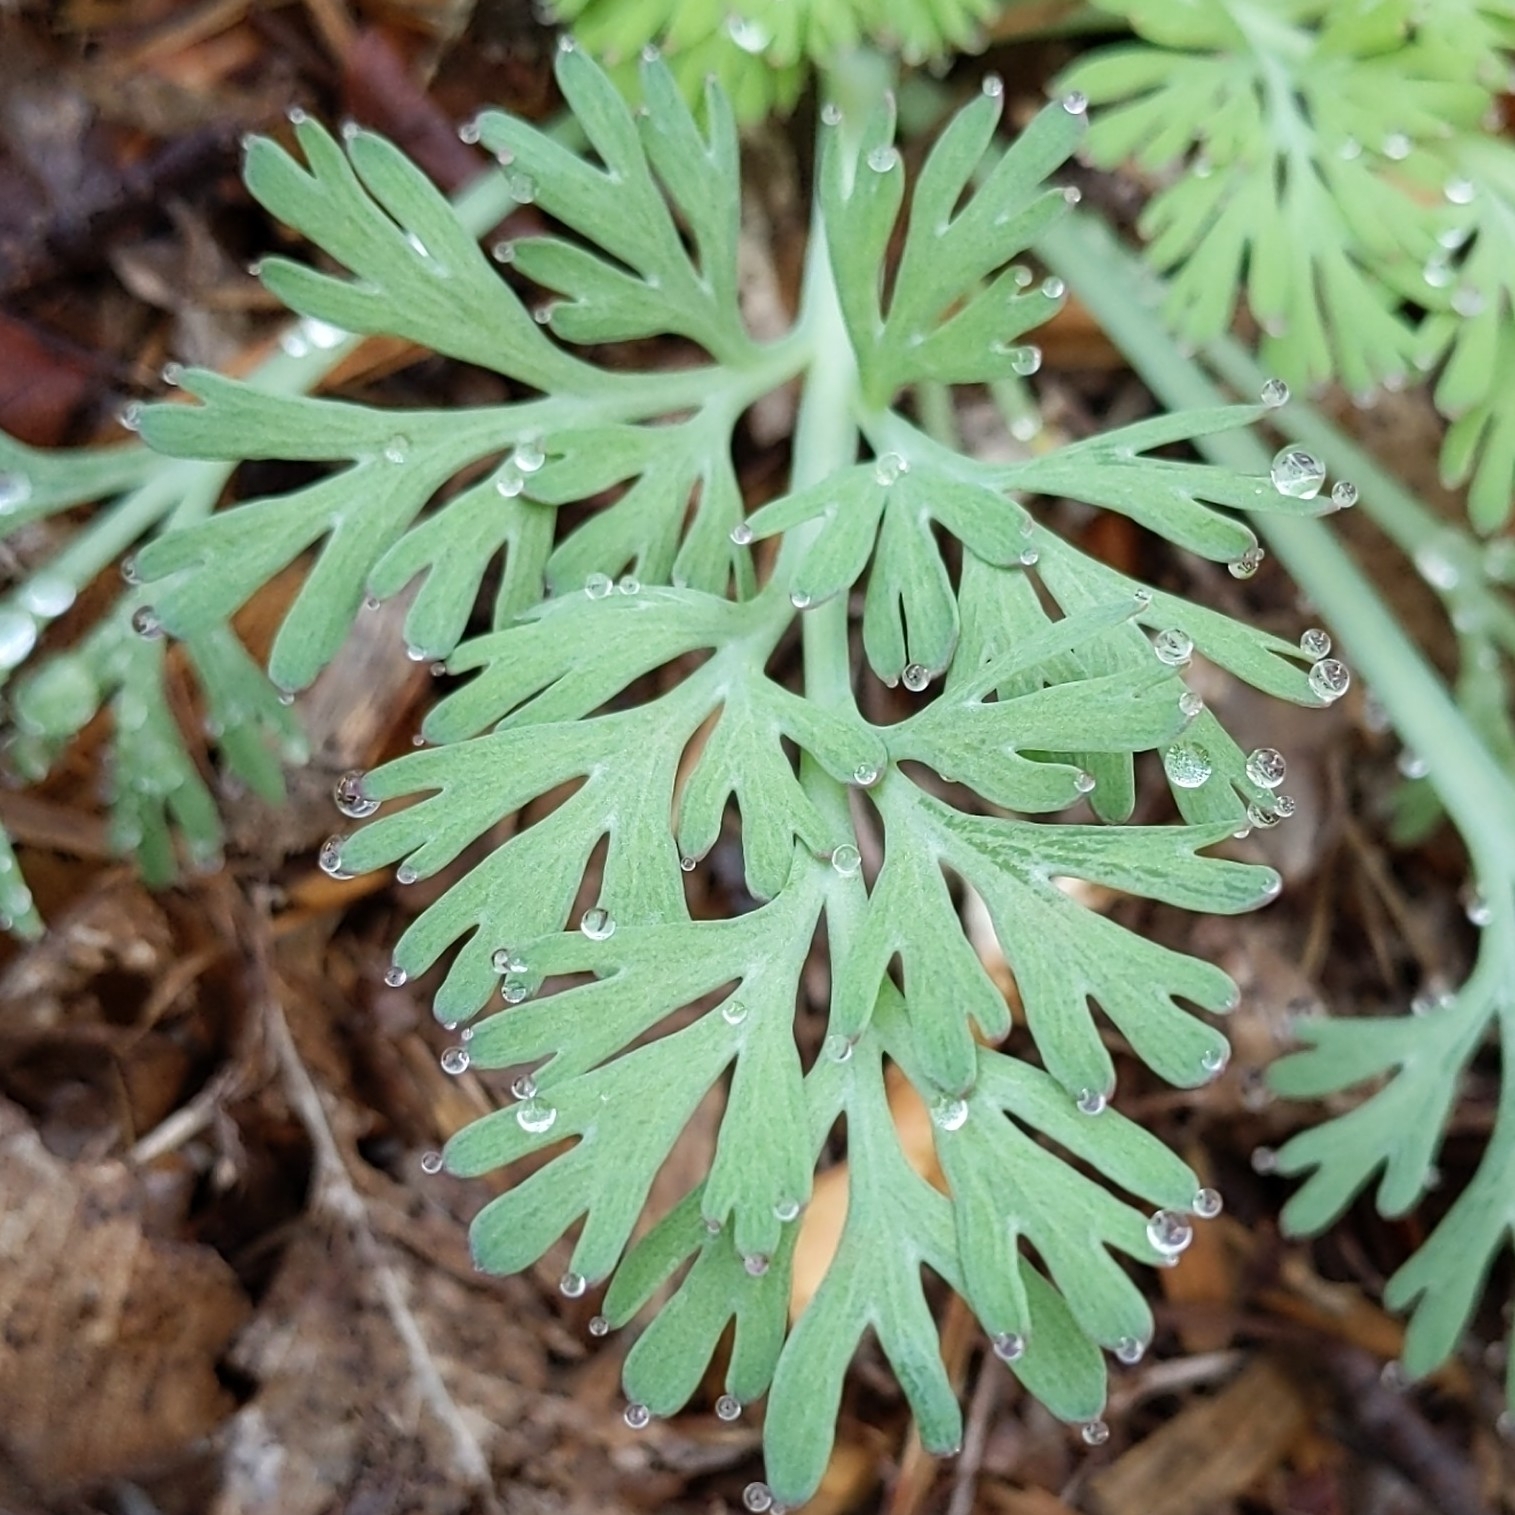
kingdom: Plantae
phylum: Tracheophyta
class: Magnoliopsida
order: Ranunculales
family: Papaveraceae
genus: Eschscholzia
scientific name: Eschscholzia californica
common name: California poppy
